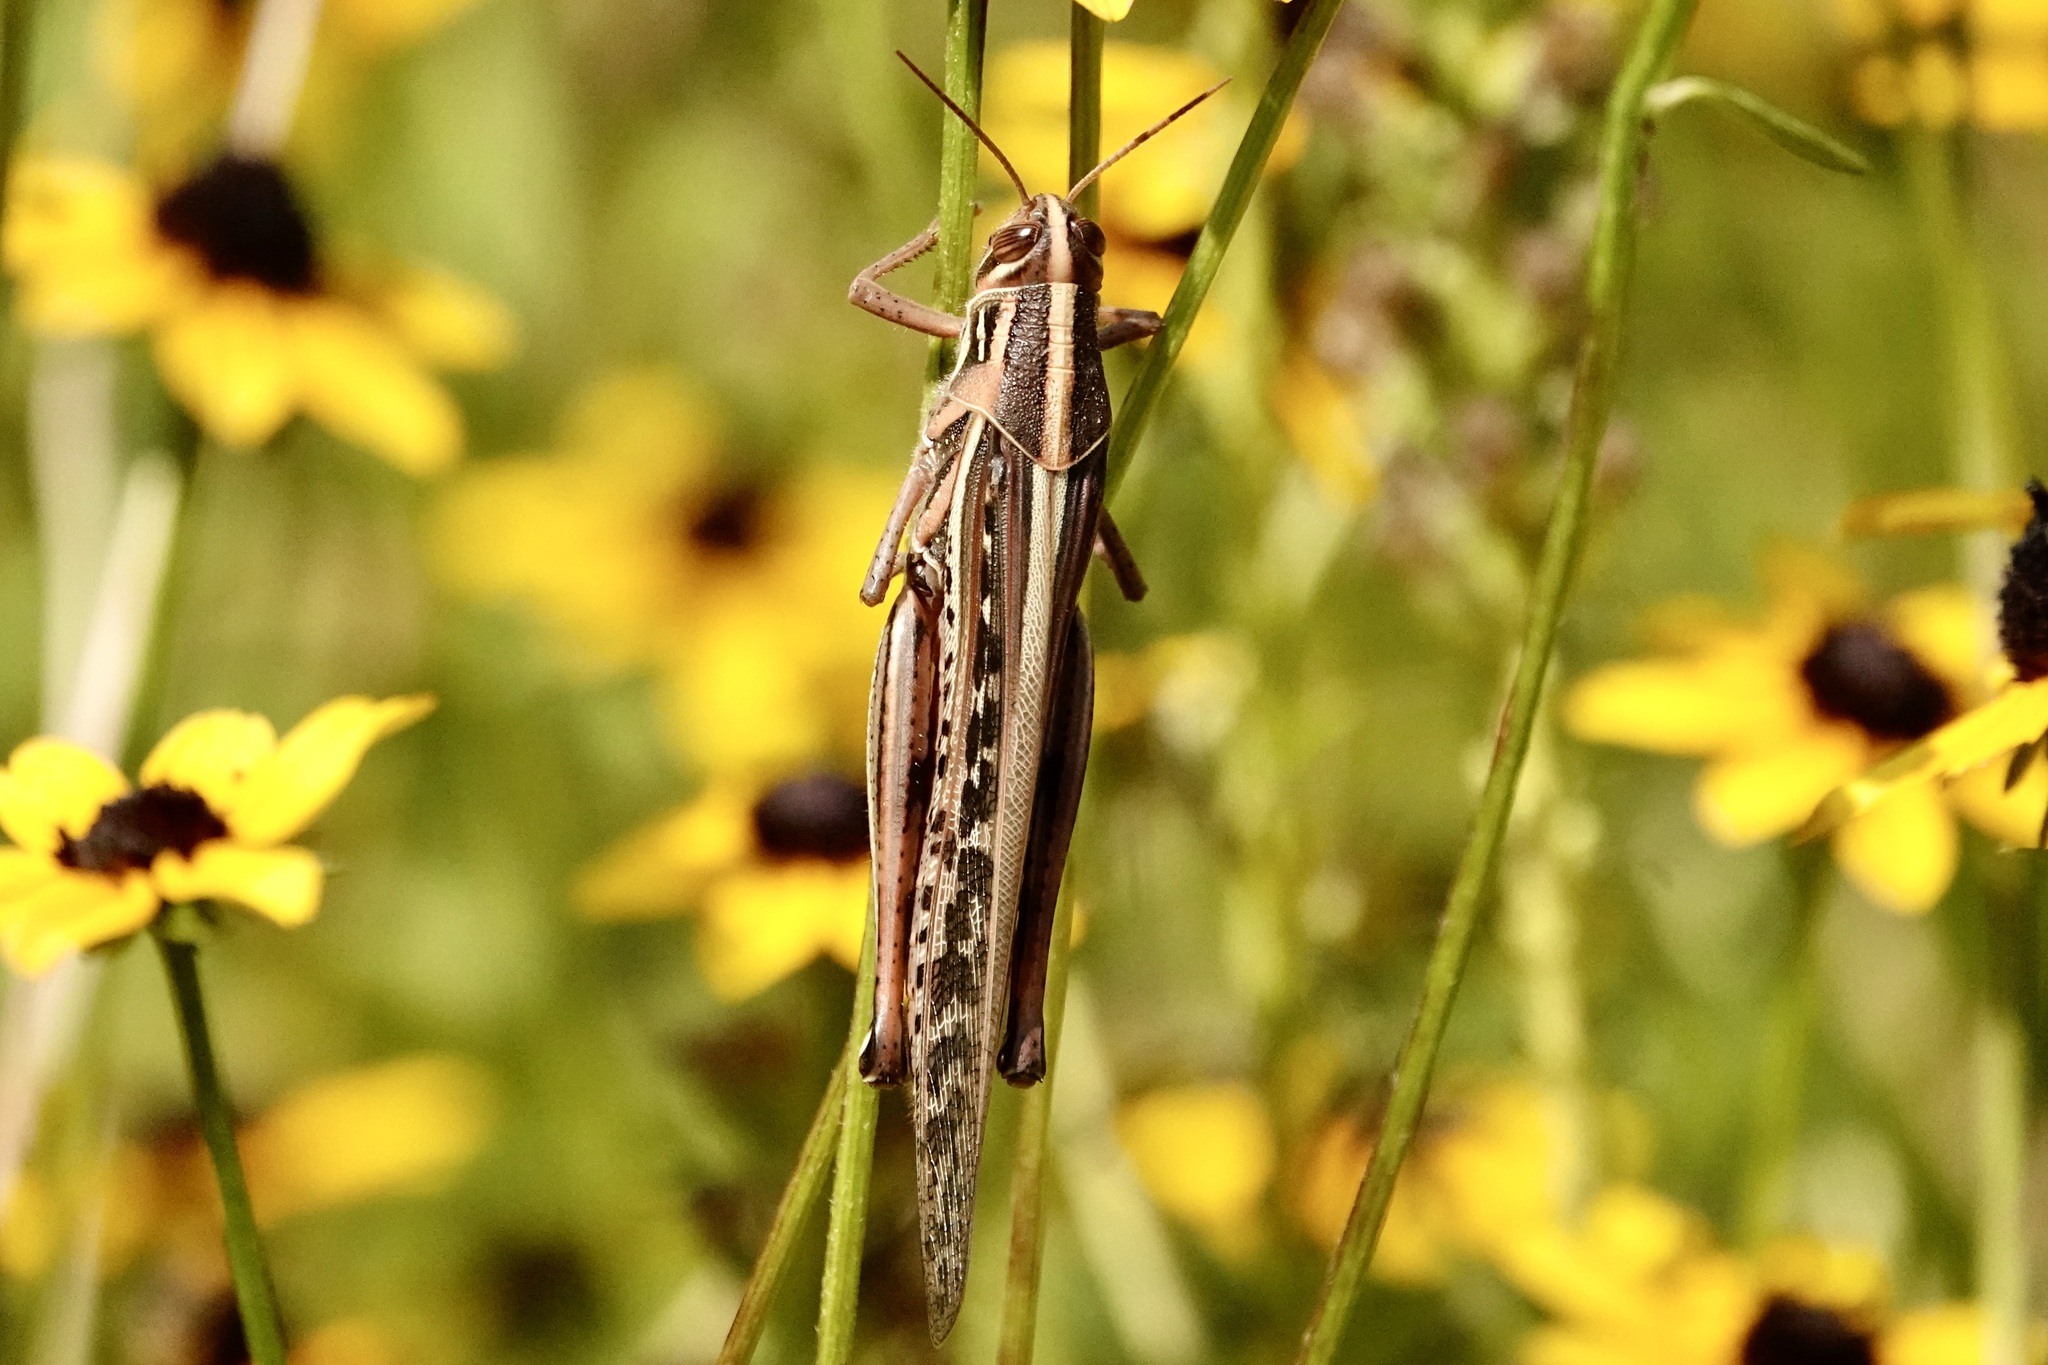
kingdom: Animalia
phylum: Arthropoda
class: Insecta
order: Orthoptera
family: Acrididae
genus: Schistocerca
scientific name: Schistocerca americana
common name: American bird locust
